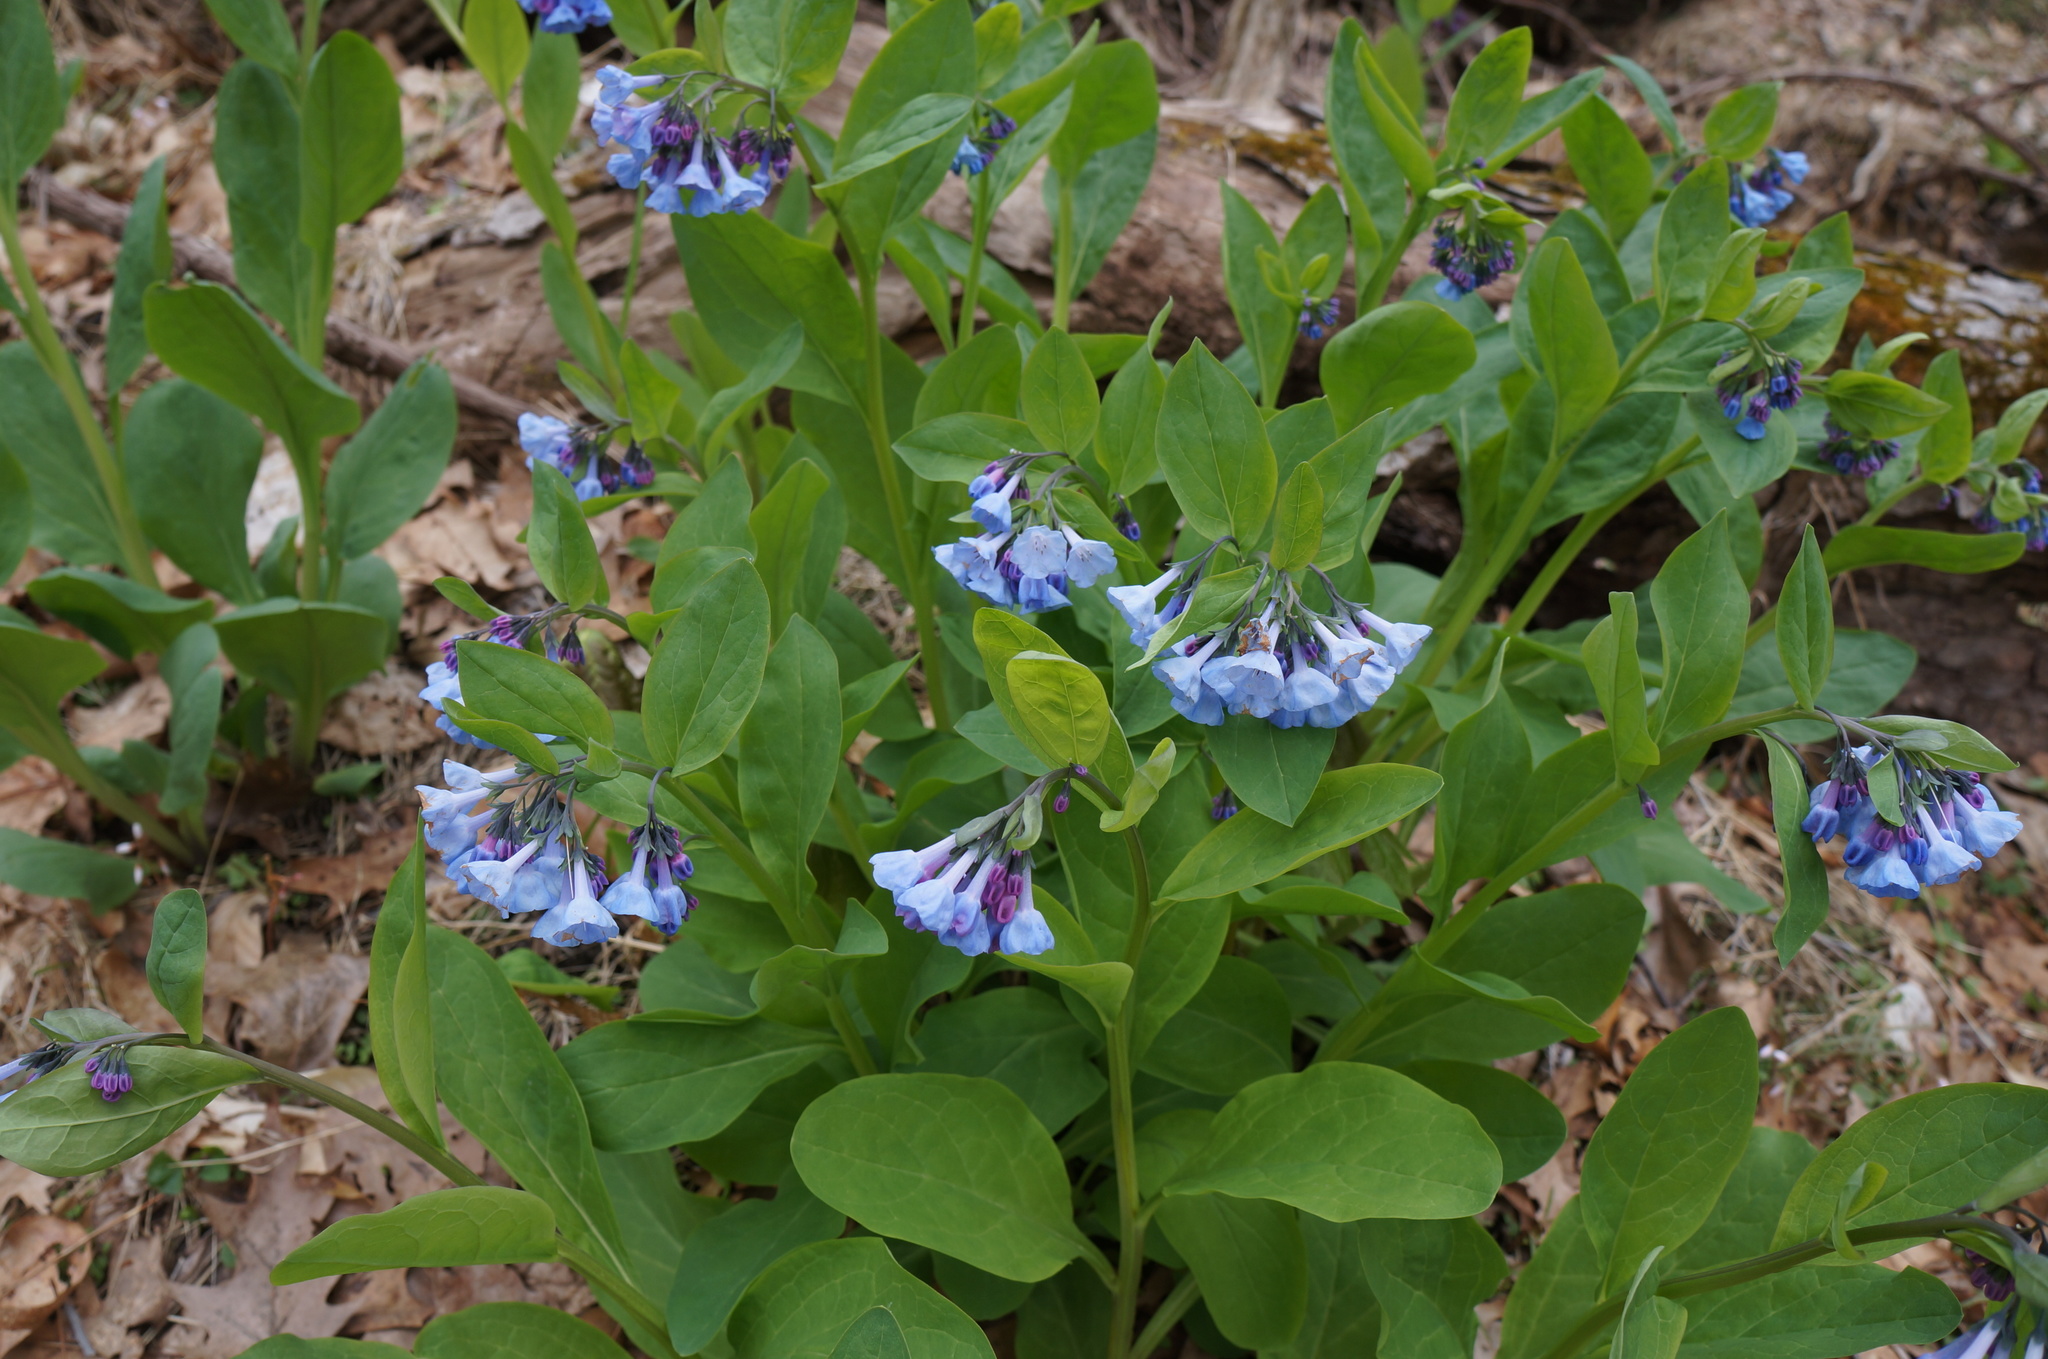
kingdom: Plantae
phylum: Tracheophyta
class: Magnoliopsida
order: Boraginales
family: Boraginaceae
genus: Mertensia
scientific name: Mertensia virginica
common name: Virginia bluebells
